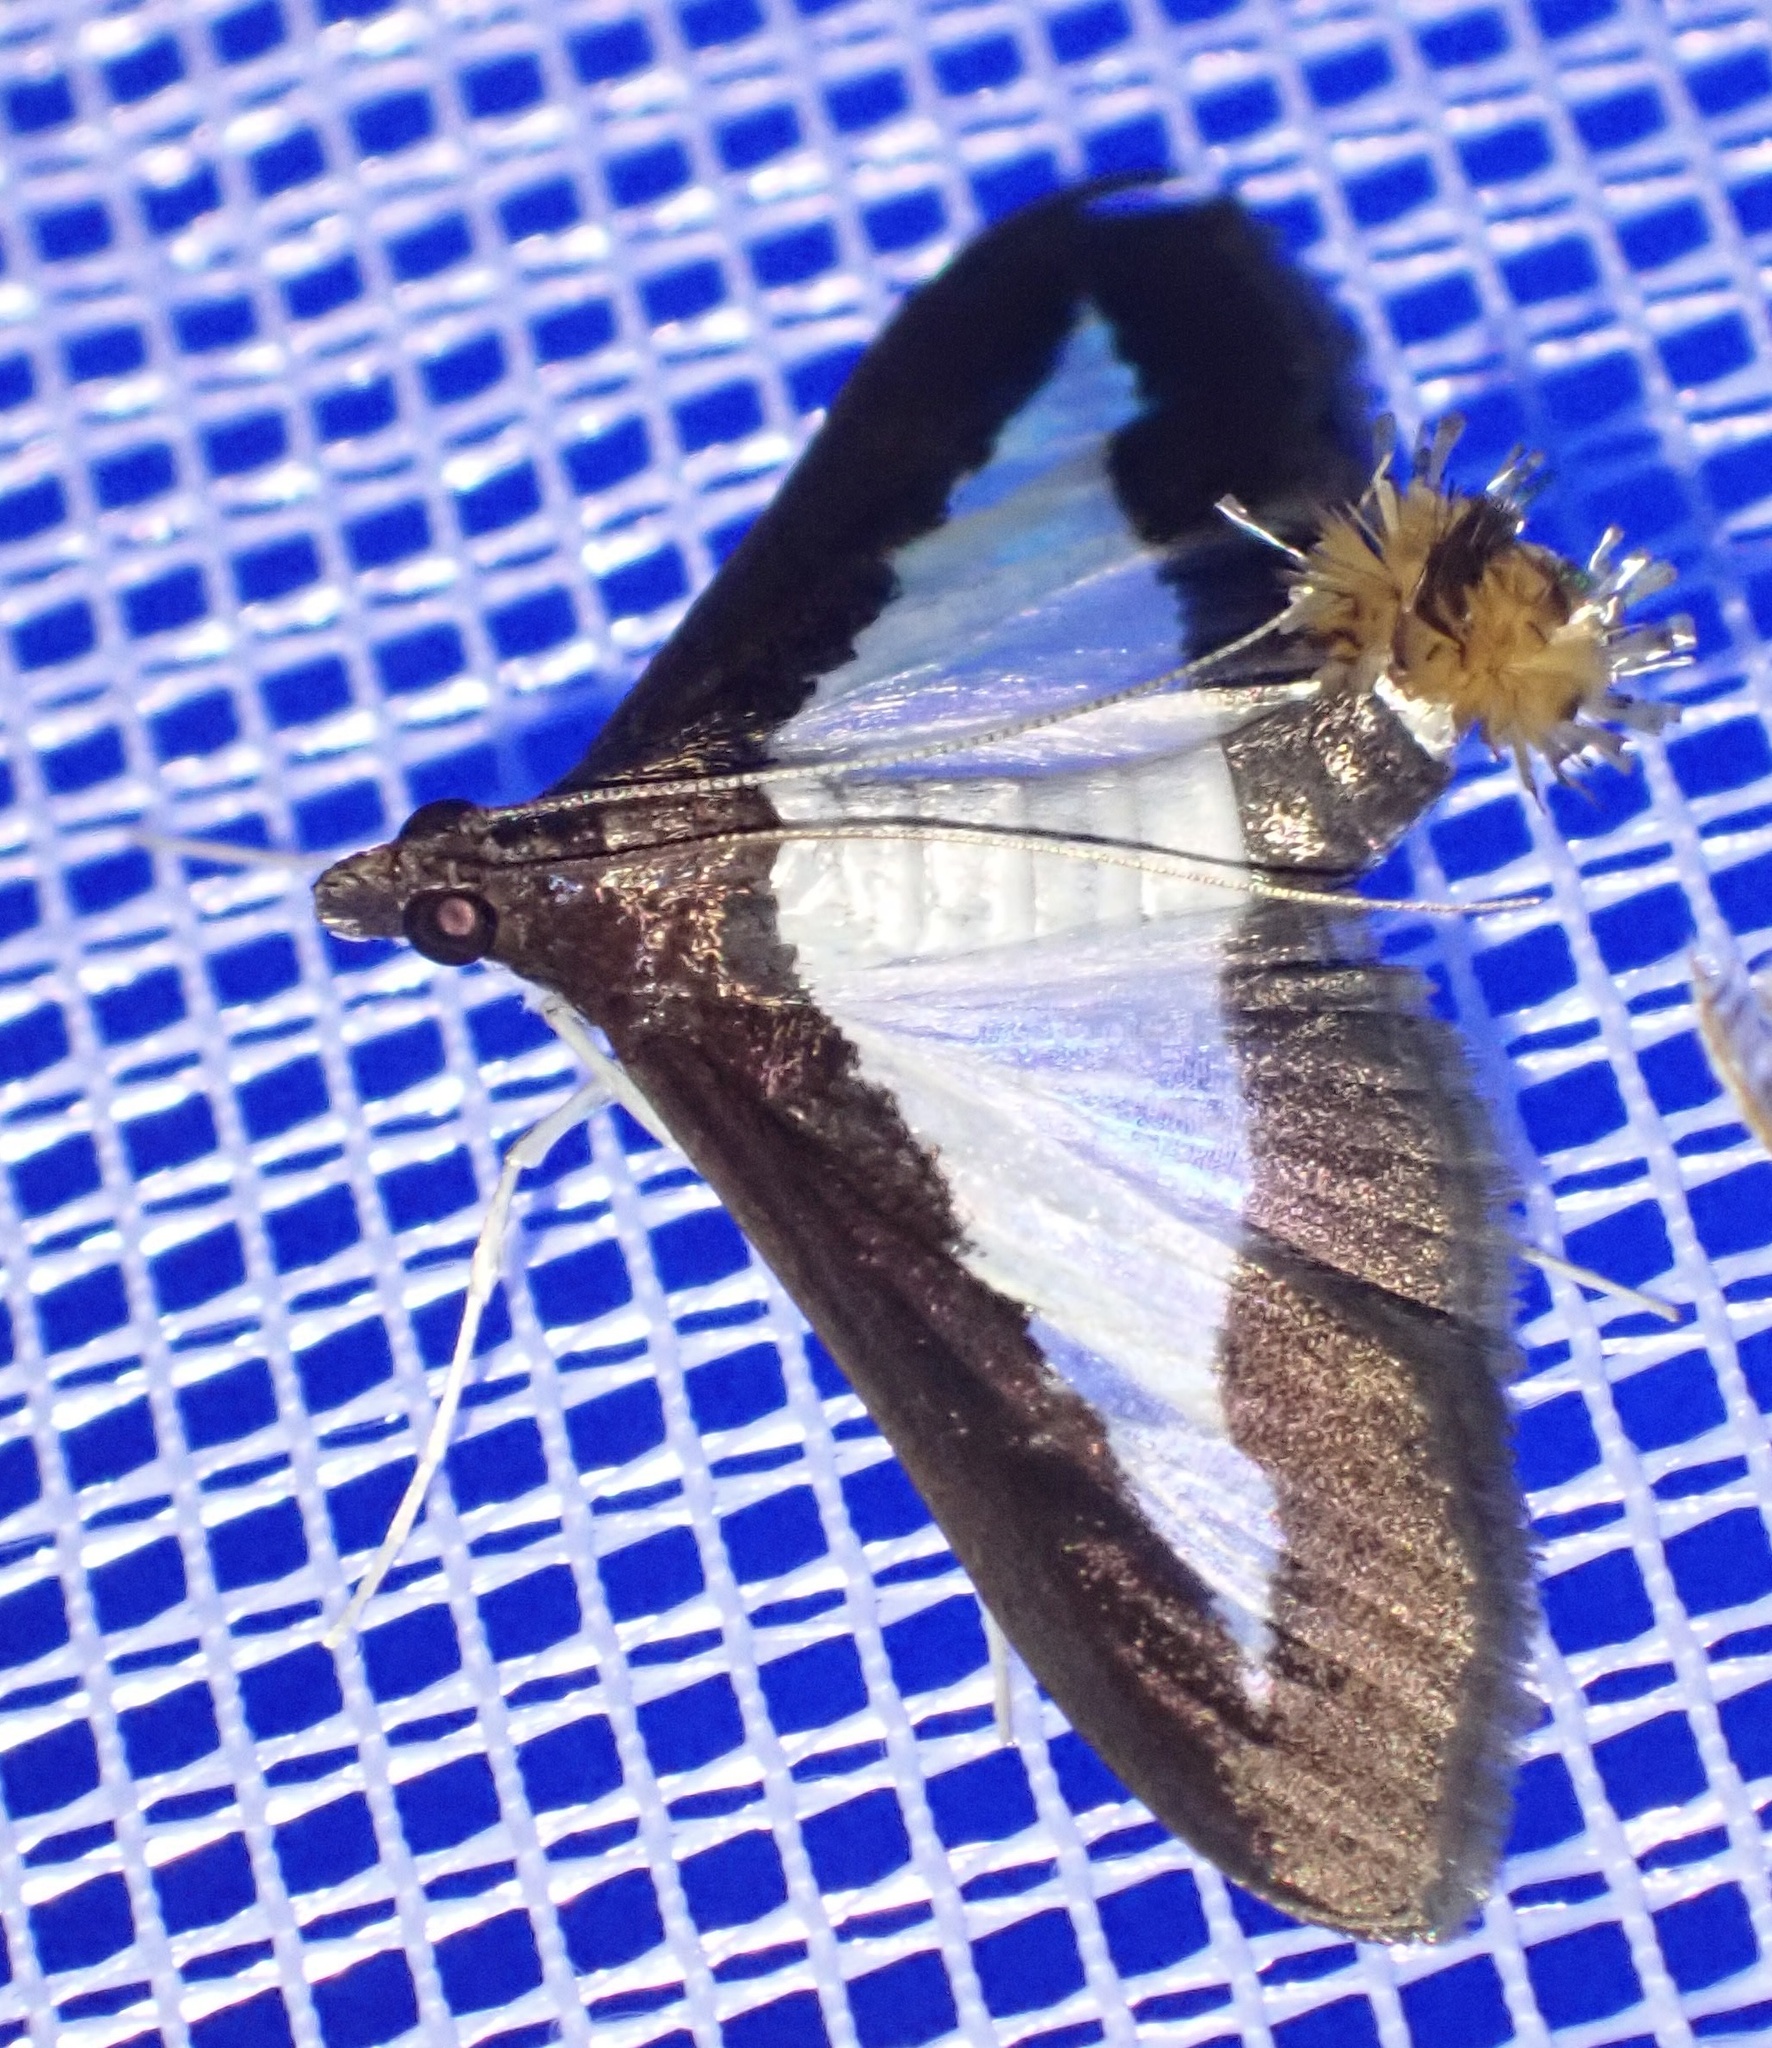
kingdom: Animalia
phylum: Arthropoda
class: Insecta
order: Lepidoptera
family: Crambidae
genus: Diaphania
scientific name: Diaphania indica
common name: Cucumber moth
